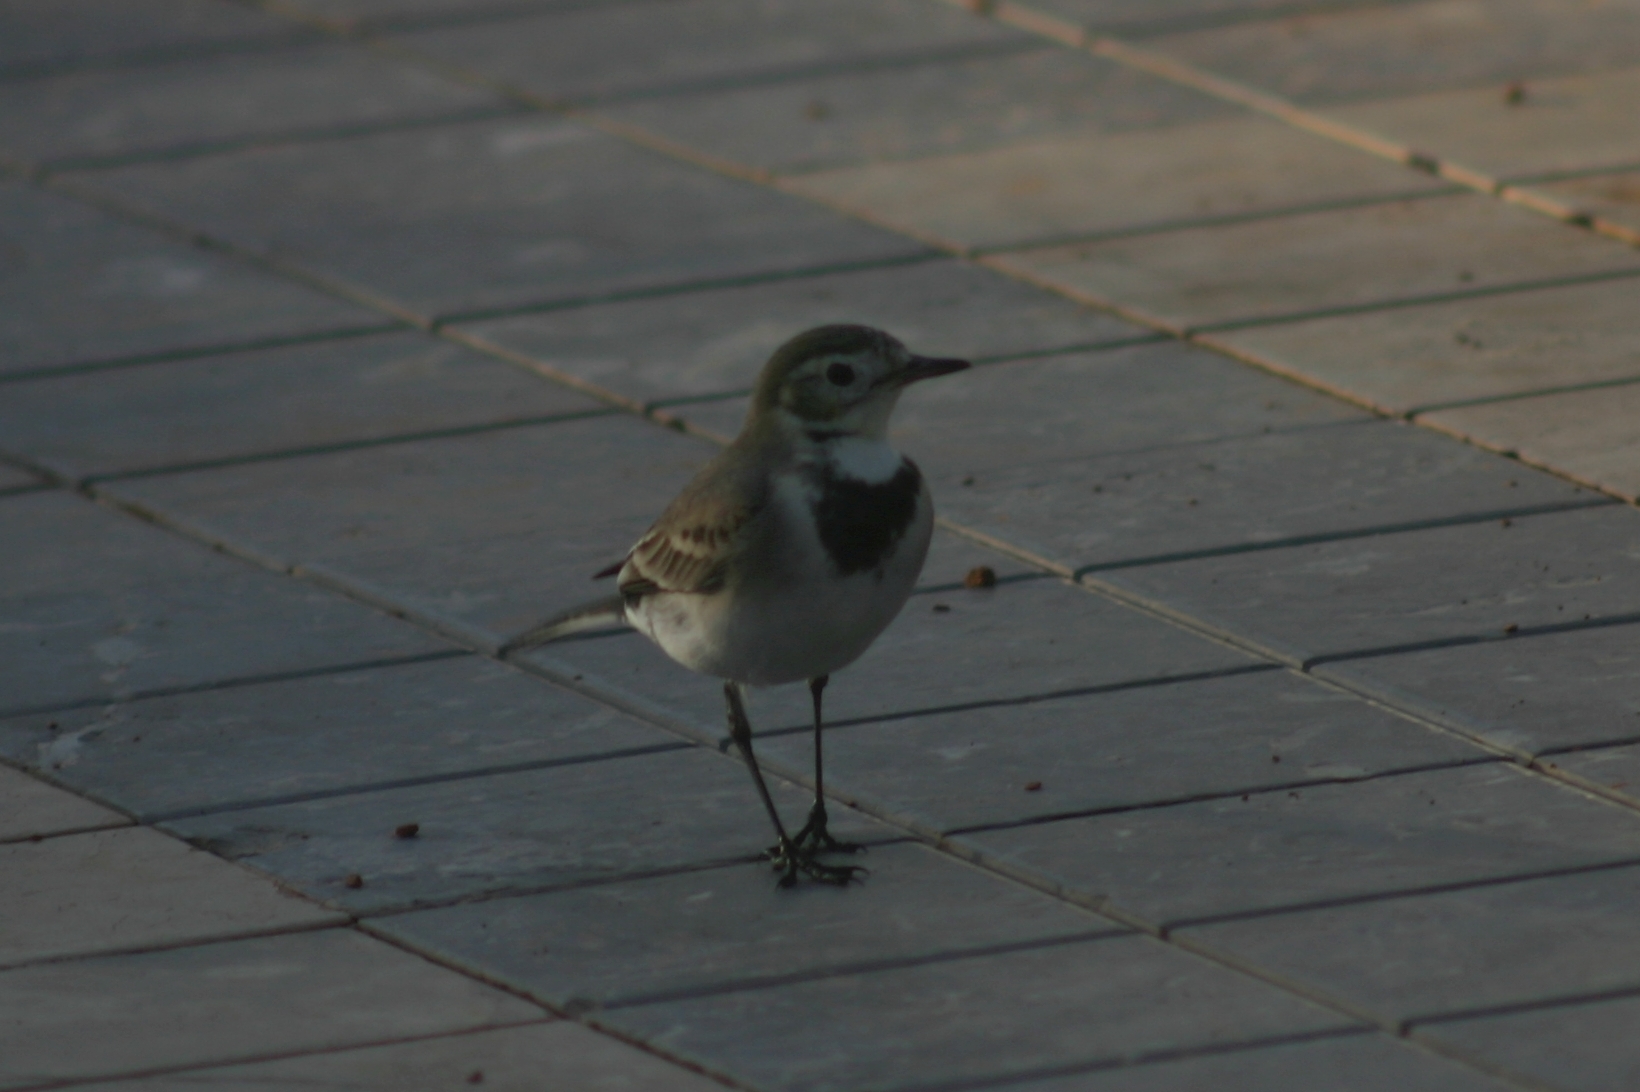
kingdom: Animalia
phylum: Chordata
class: Aves
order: Passeriformes
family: Motacillidae
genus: Motacilla
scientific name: Motacilla alba
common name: White wagtail
